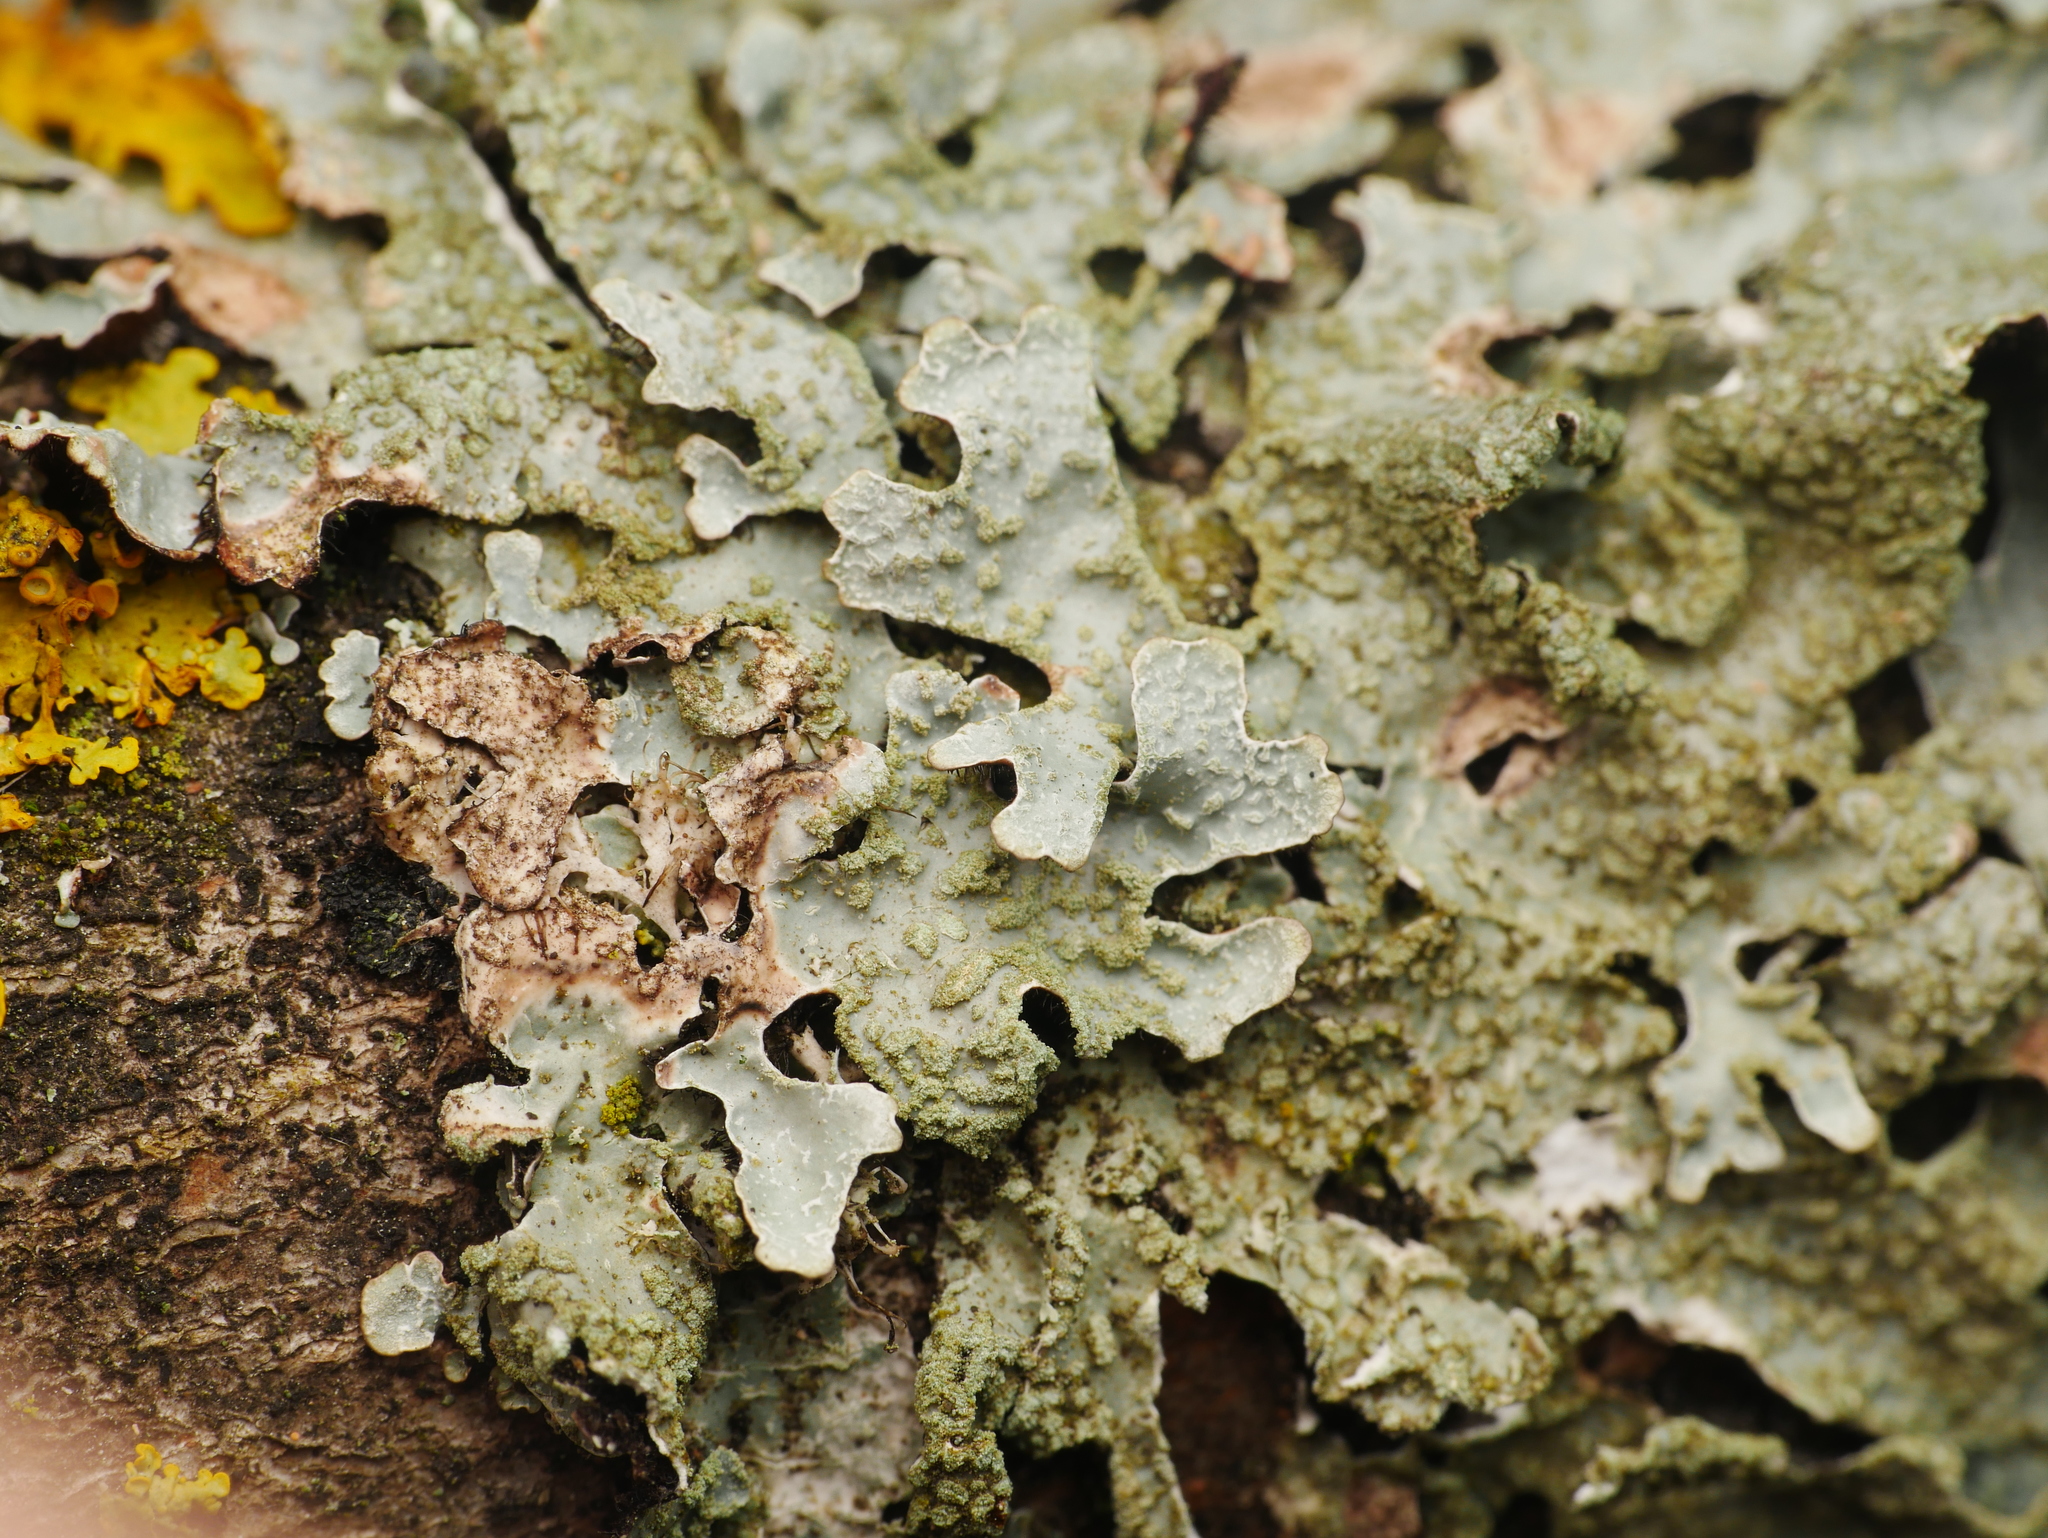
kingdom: Fungi
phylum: Ascomycota
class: Lecanoromycetes
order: Lecanorales
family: Parmeliaceae
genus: Parmelia
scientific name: Parmelia sulcata
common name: Netted shield lichen
